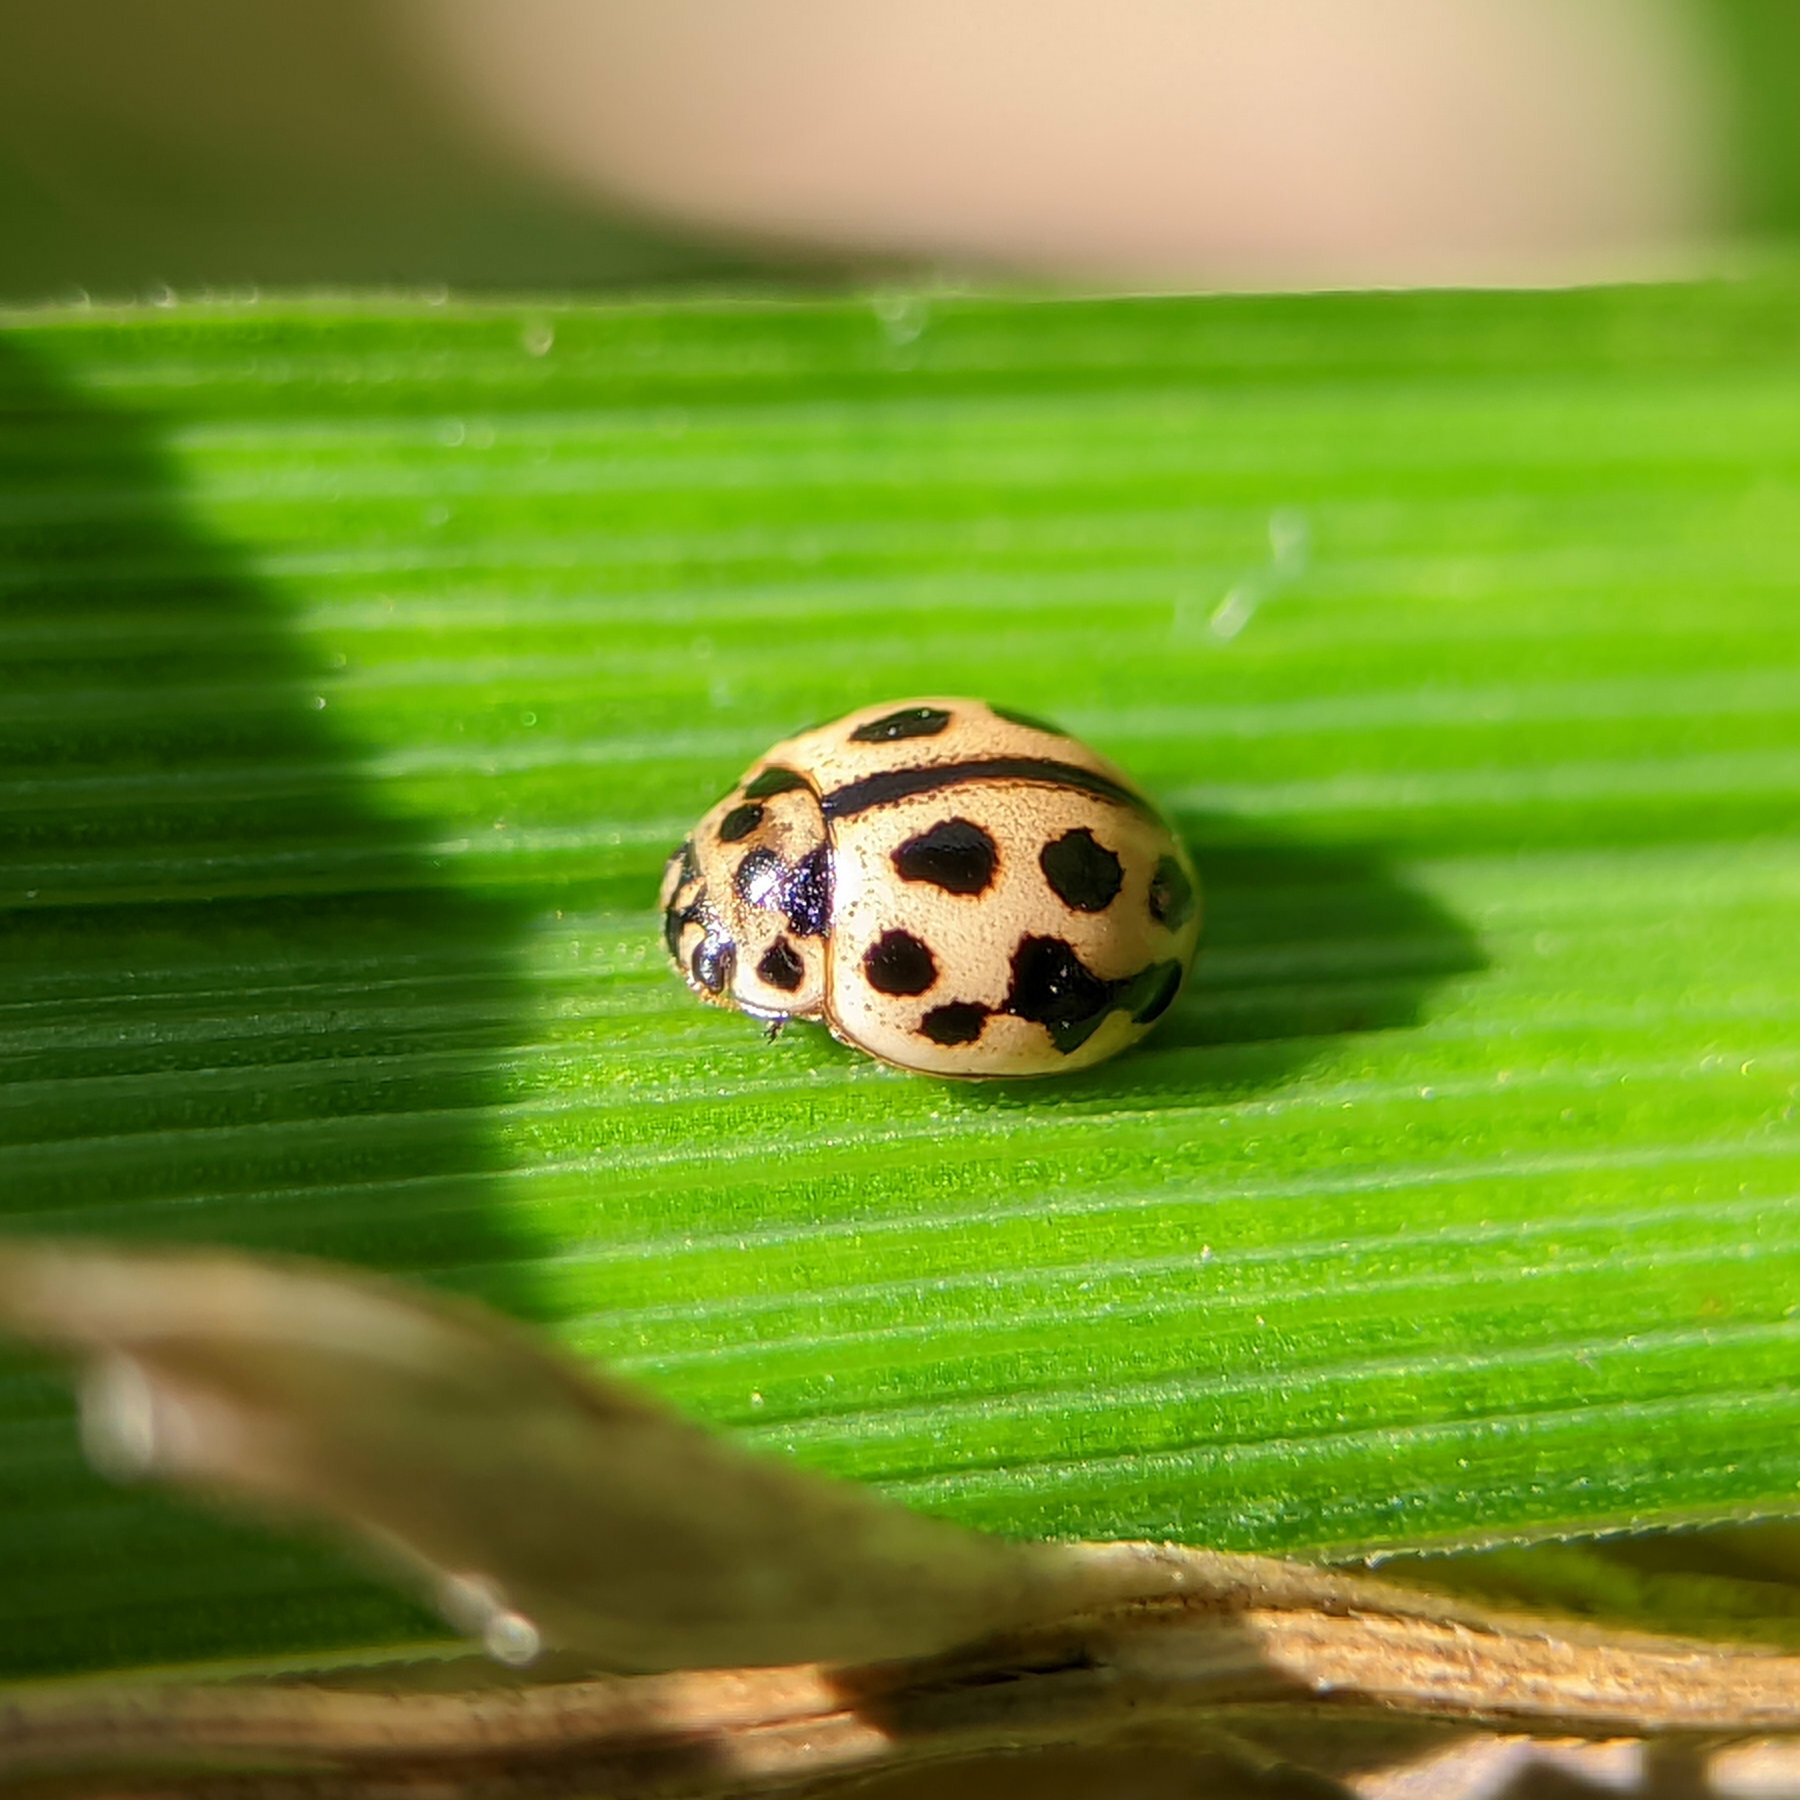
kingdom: Animalia
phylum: Arthropoda
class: Insecta
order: Coleoptera
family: Coccinellidae
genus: Tytthaspis
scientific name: Tytthaspis sedecimpunctata
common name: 16-spot ladybird
